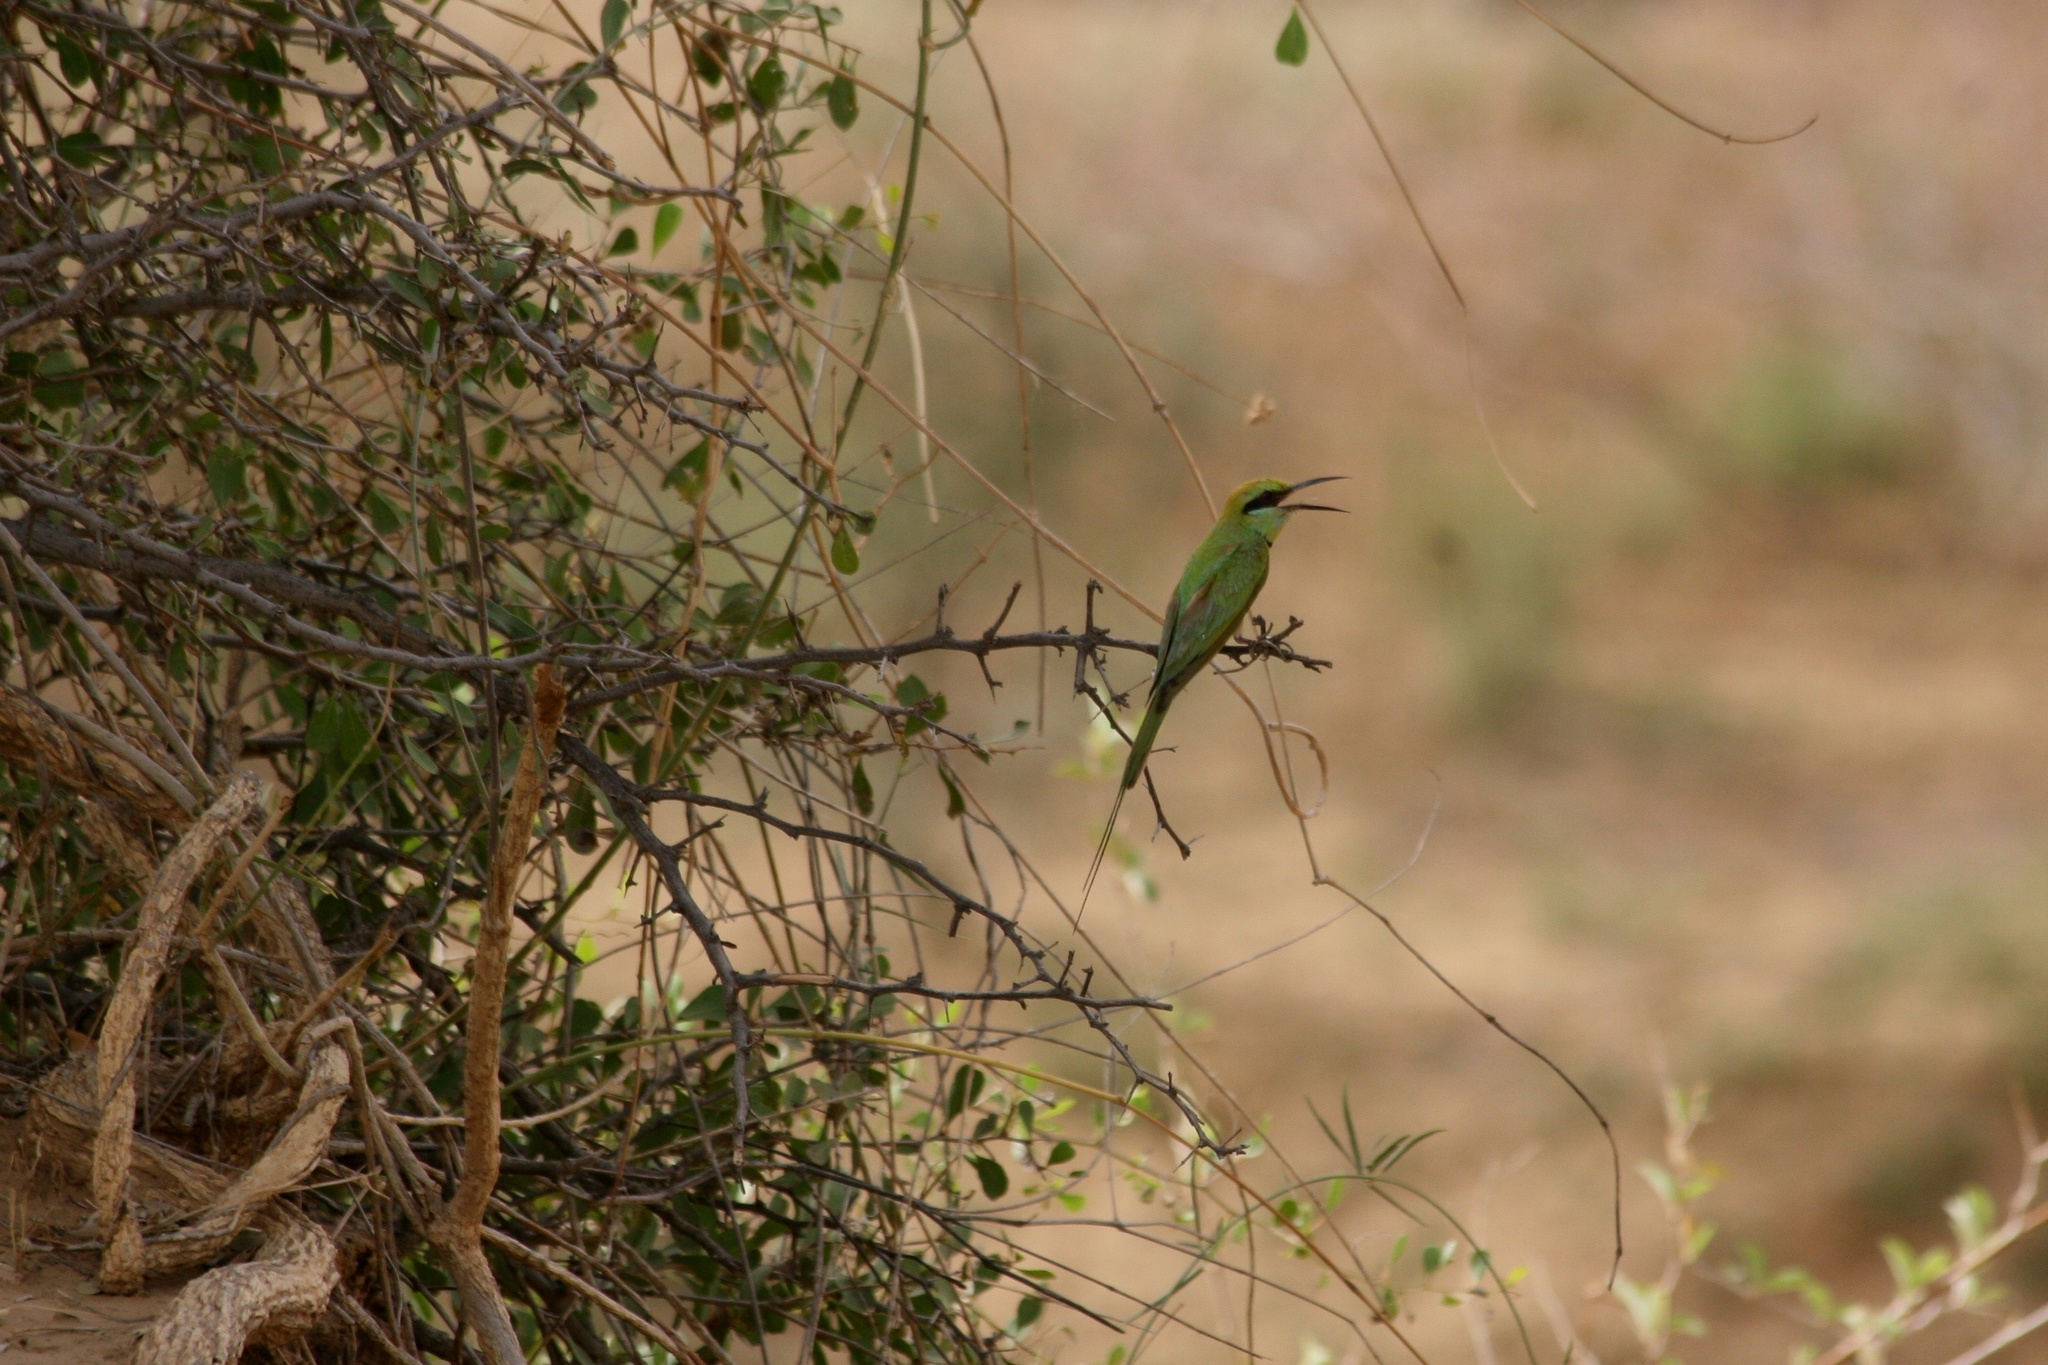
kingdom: Animalia
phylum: Chordata
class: Aves
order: Coraciiformes
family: Meropidae
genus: Merops
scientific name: Merops viridissimus
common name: African green bee-eater
